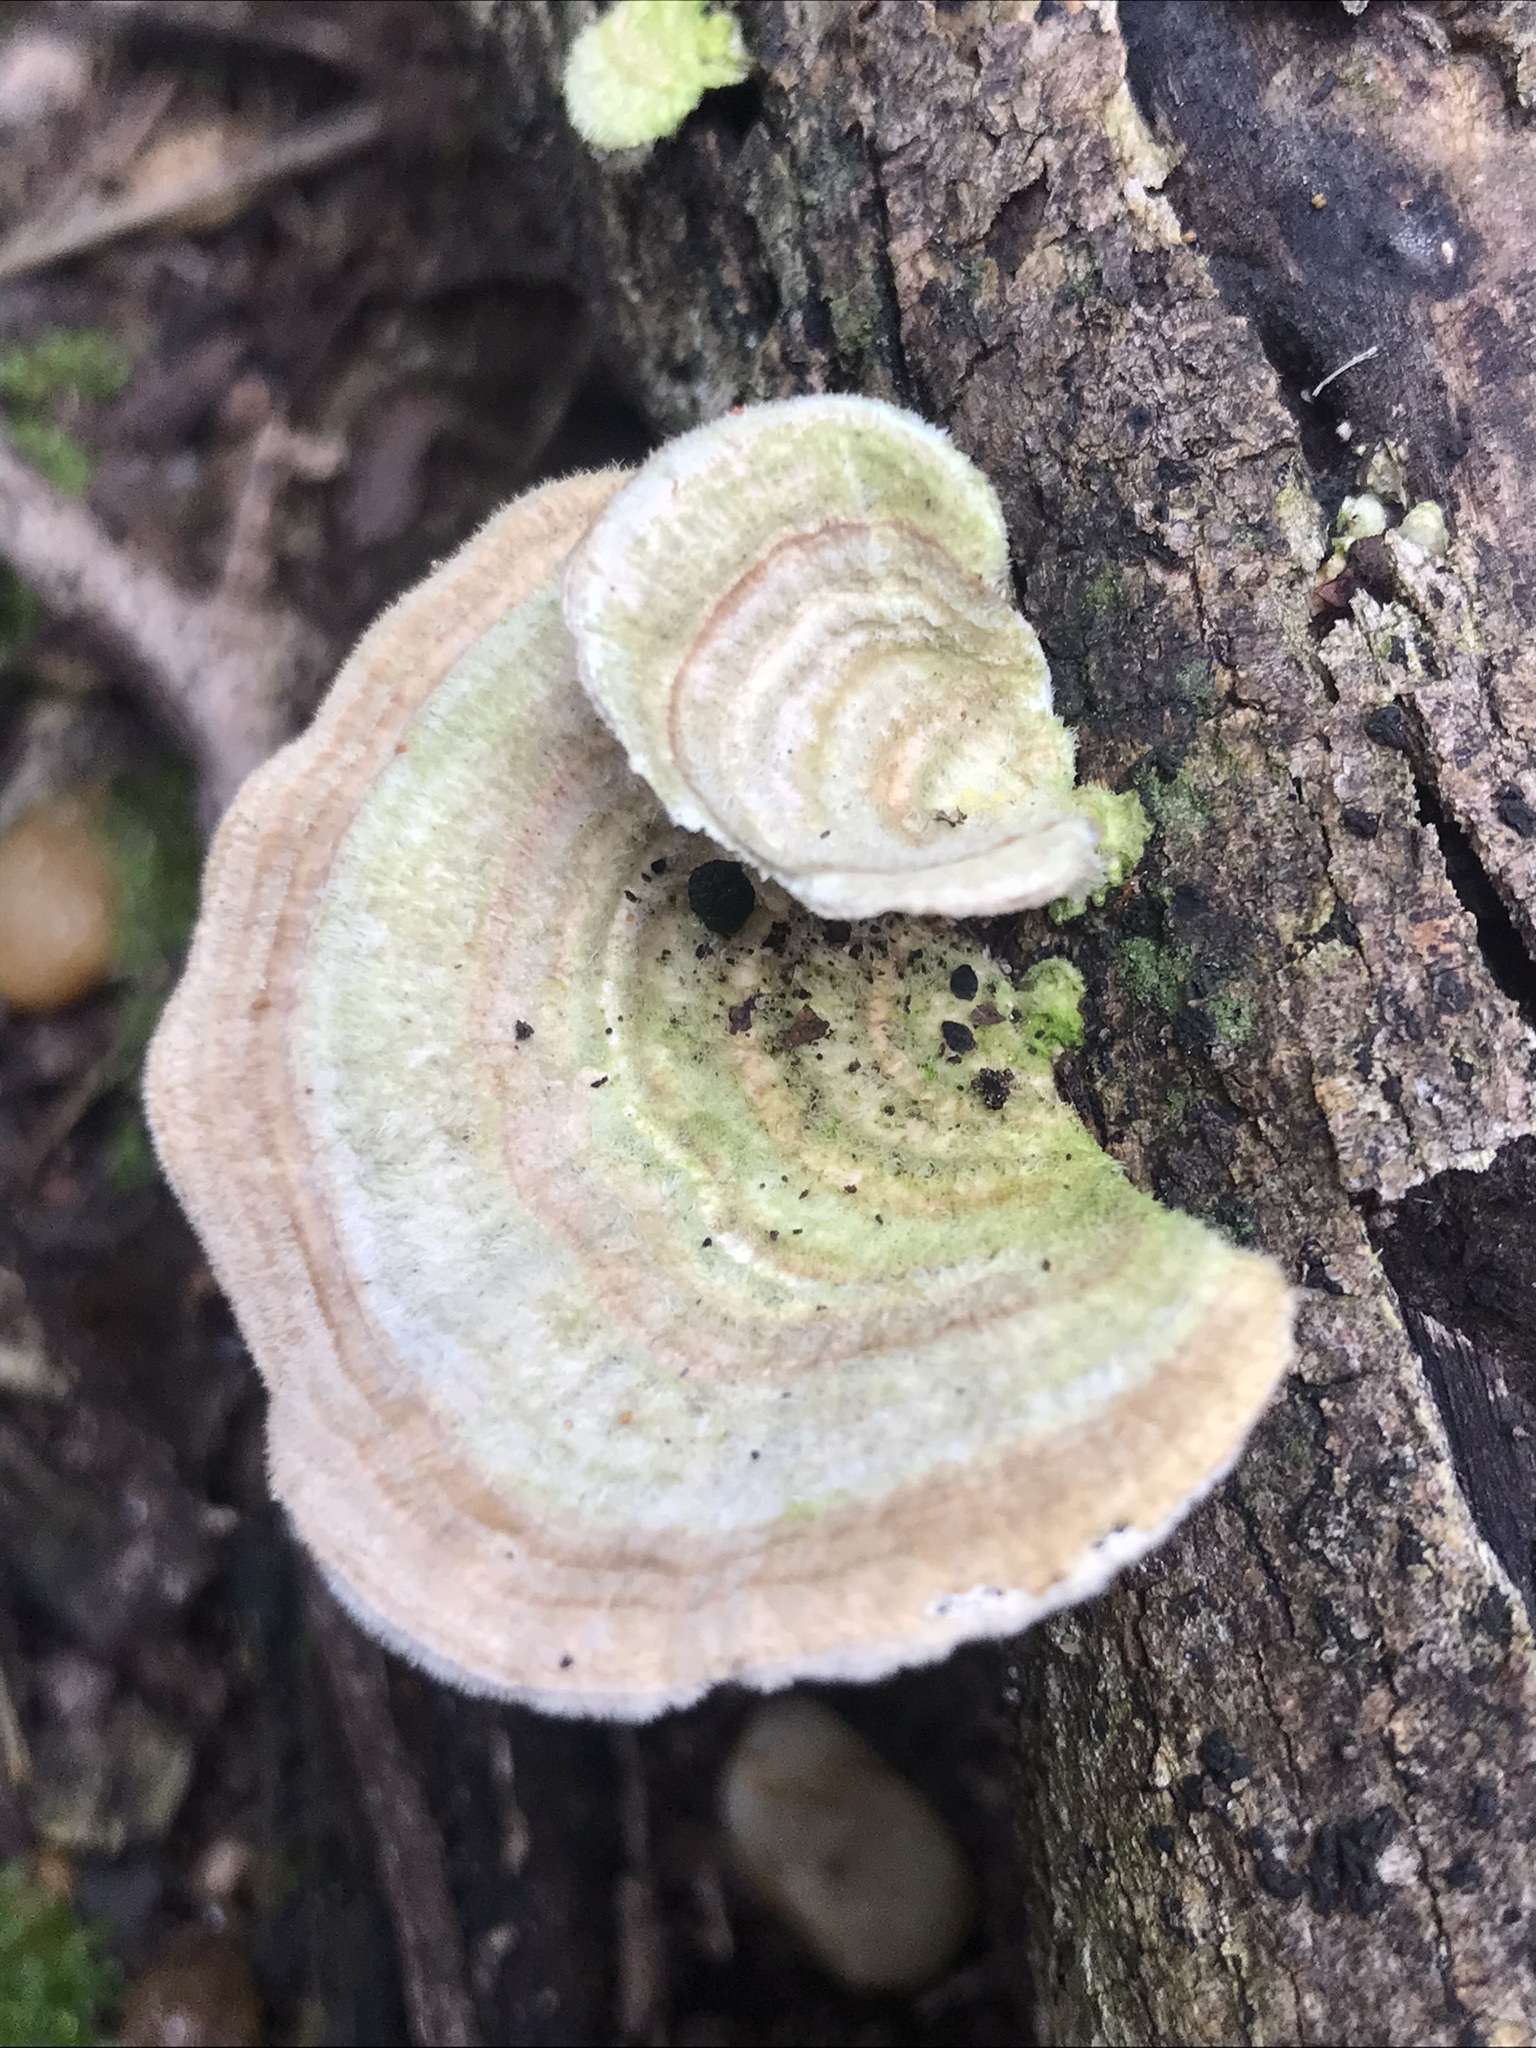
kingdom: Fungi
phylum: Basidiomycota
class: Agaricomycetes
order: Polyporales
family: Polyporaceae
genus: Trametes
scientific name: Trametes villosa
